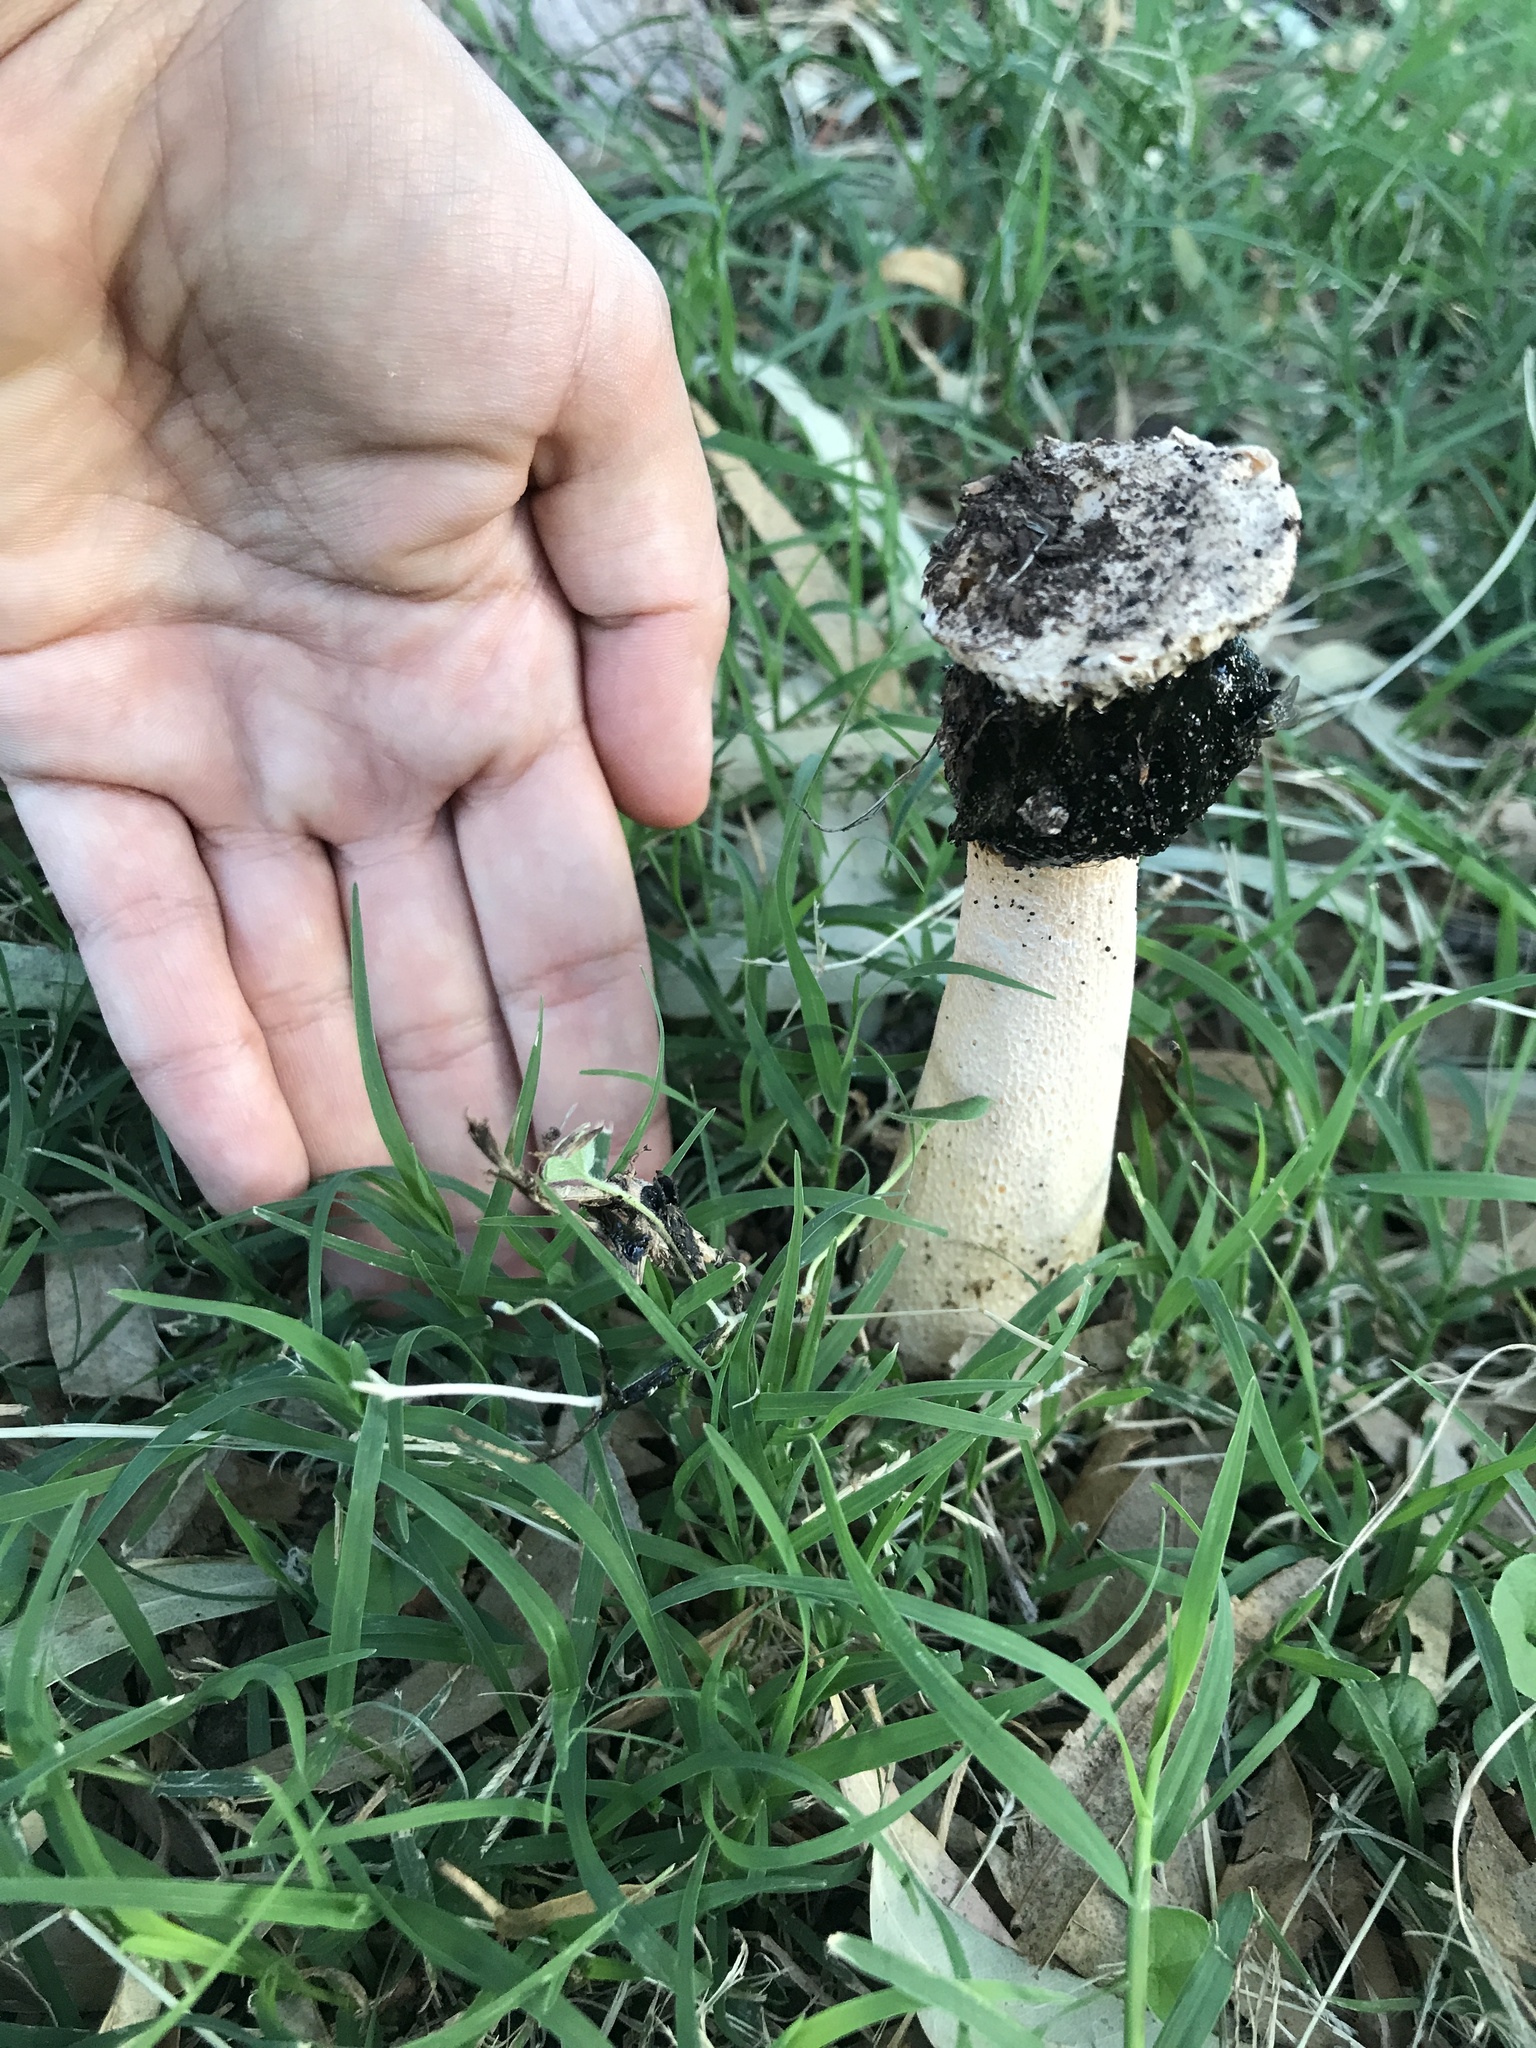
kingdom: Fungi
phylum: Basidiomycota
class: Agaricomycetes
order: Phallales
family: Phallaceae
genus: Itajahya
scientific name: Itajahya galericulata
